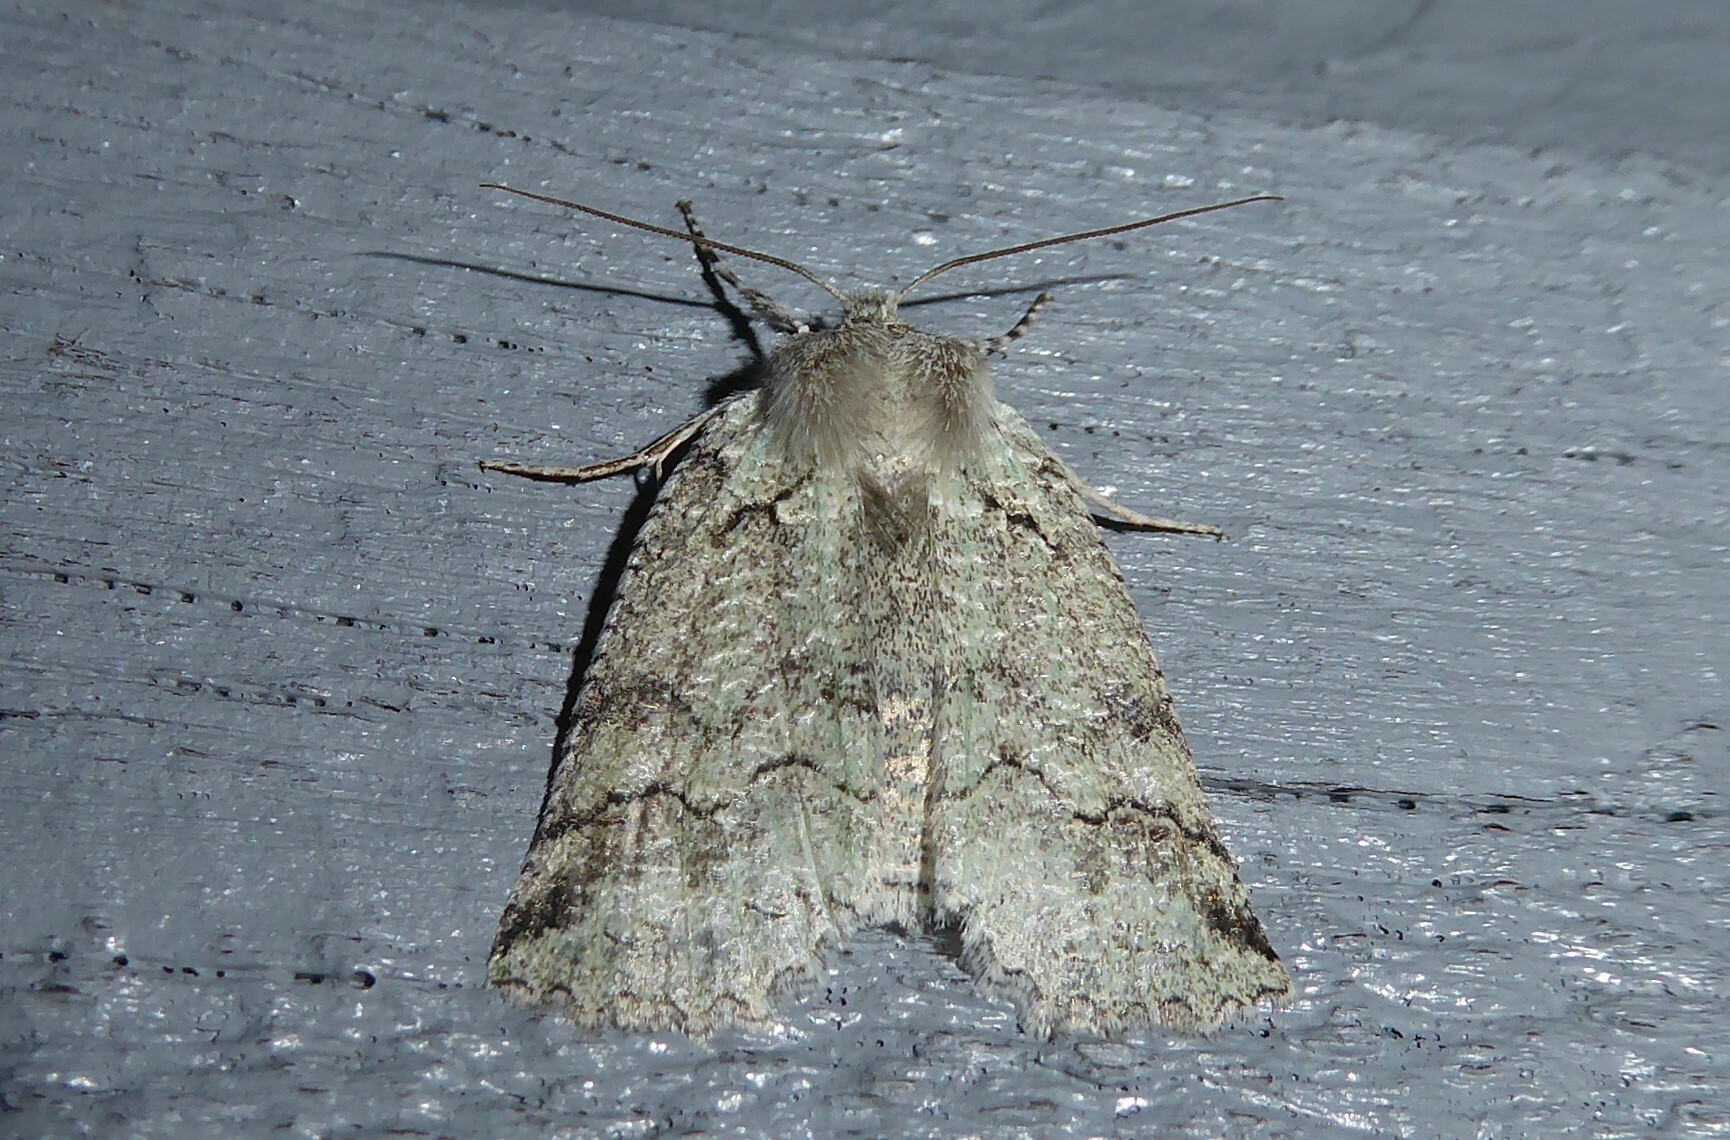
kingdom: Animalia
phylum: Arthropoda
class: Insecta
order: Lepidoptera
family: Geometridae
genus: Declana
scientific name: Declana floccosa
